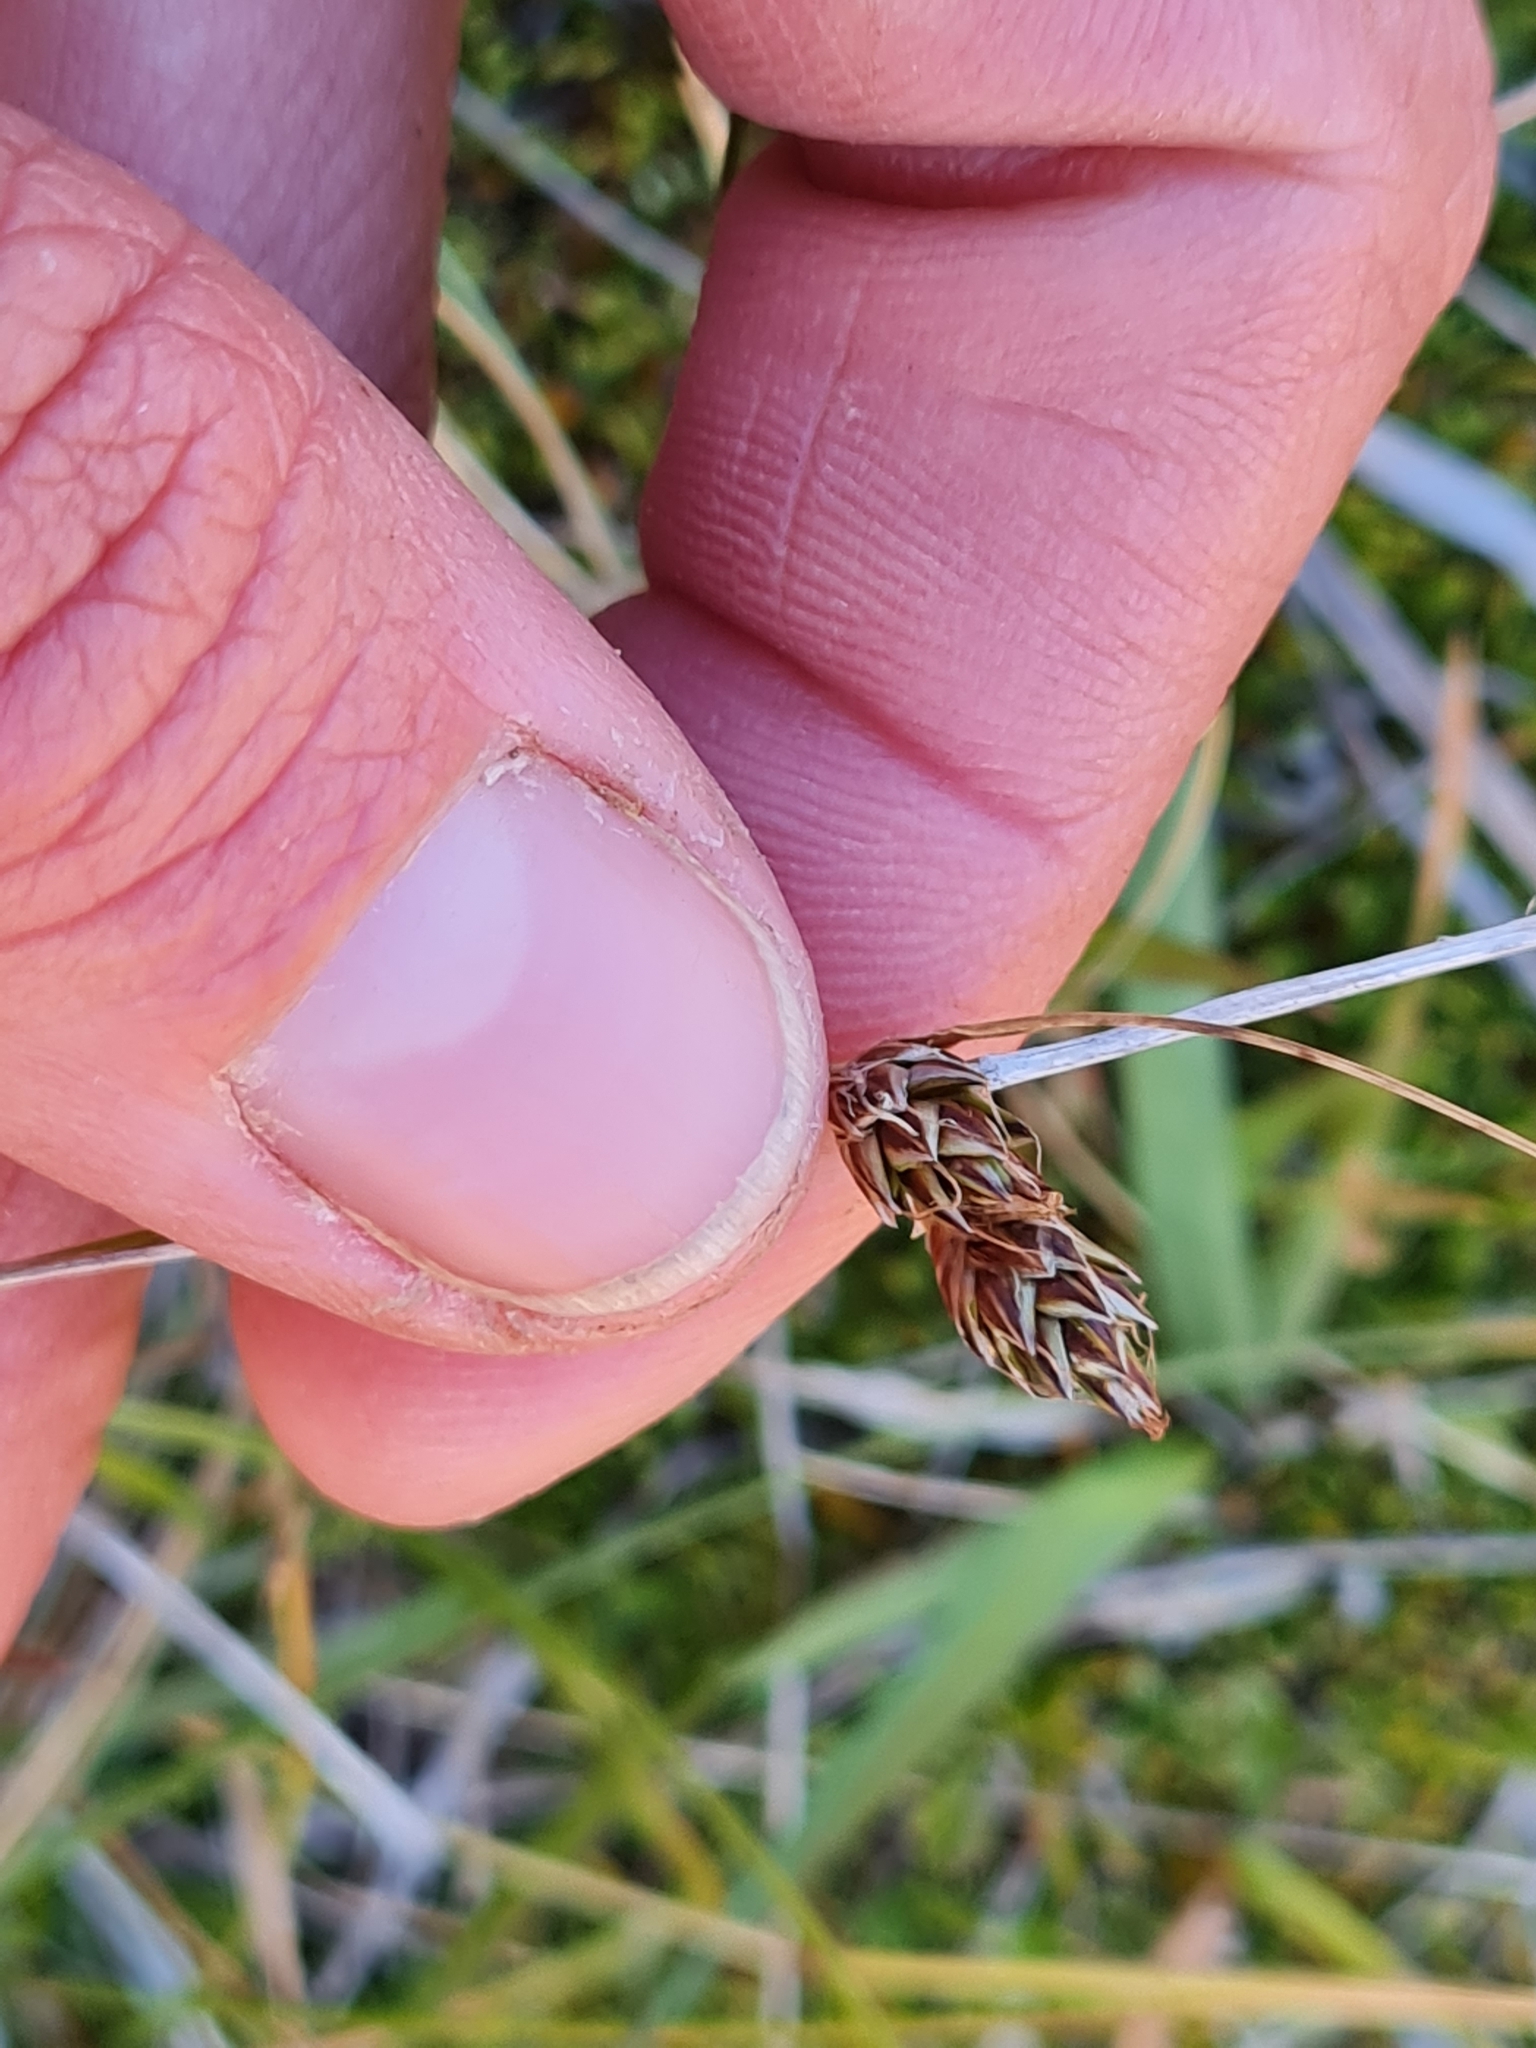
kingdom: Plantae
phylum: Tracheophyta
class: Liliopsida
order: Poales
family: Cyperaceae
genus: Carex
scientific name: Carex colensoi
